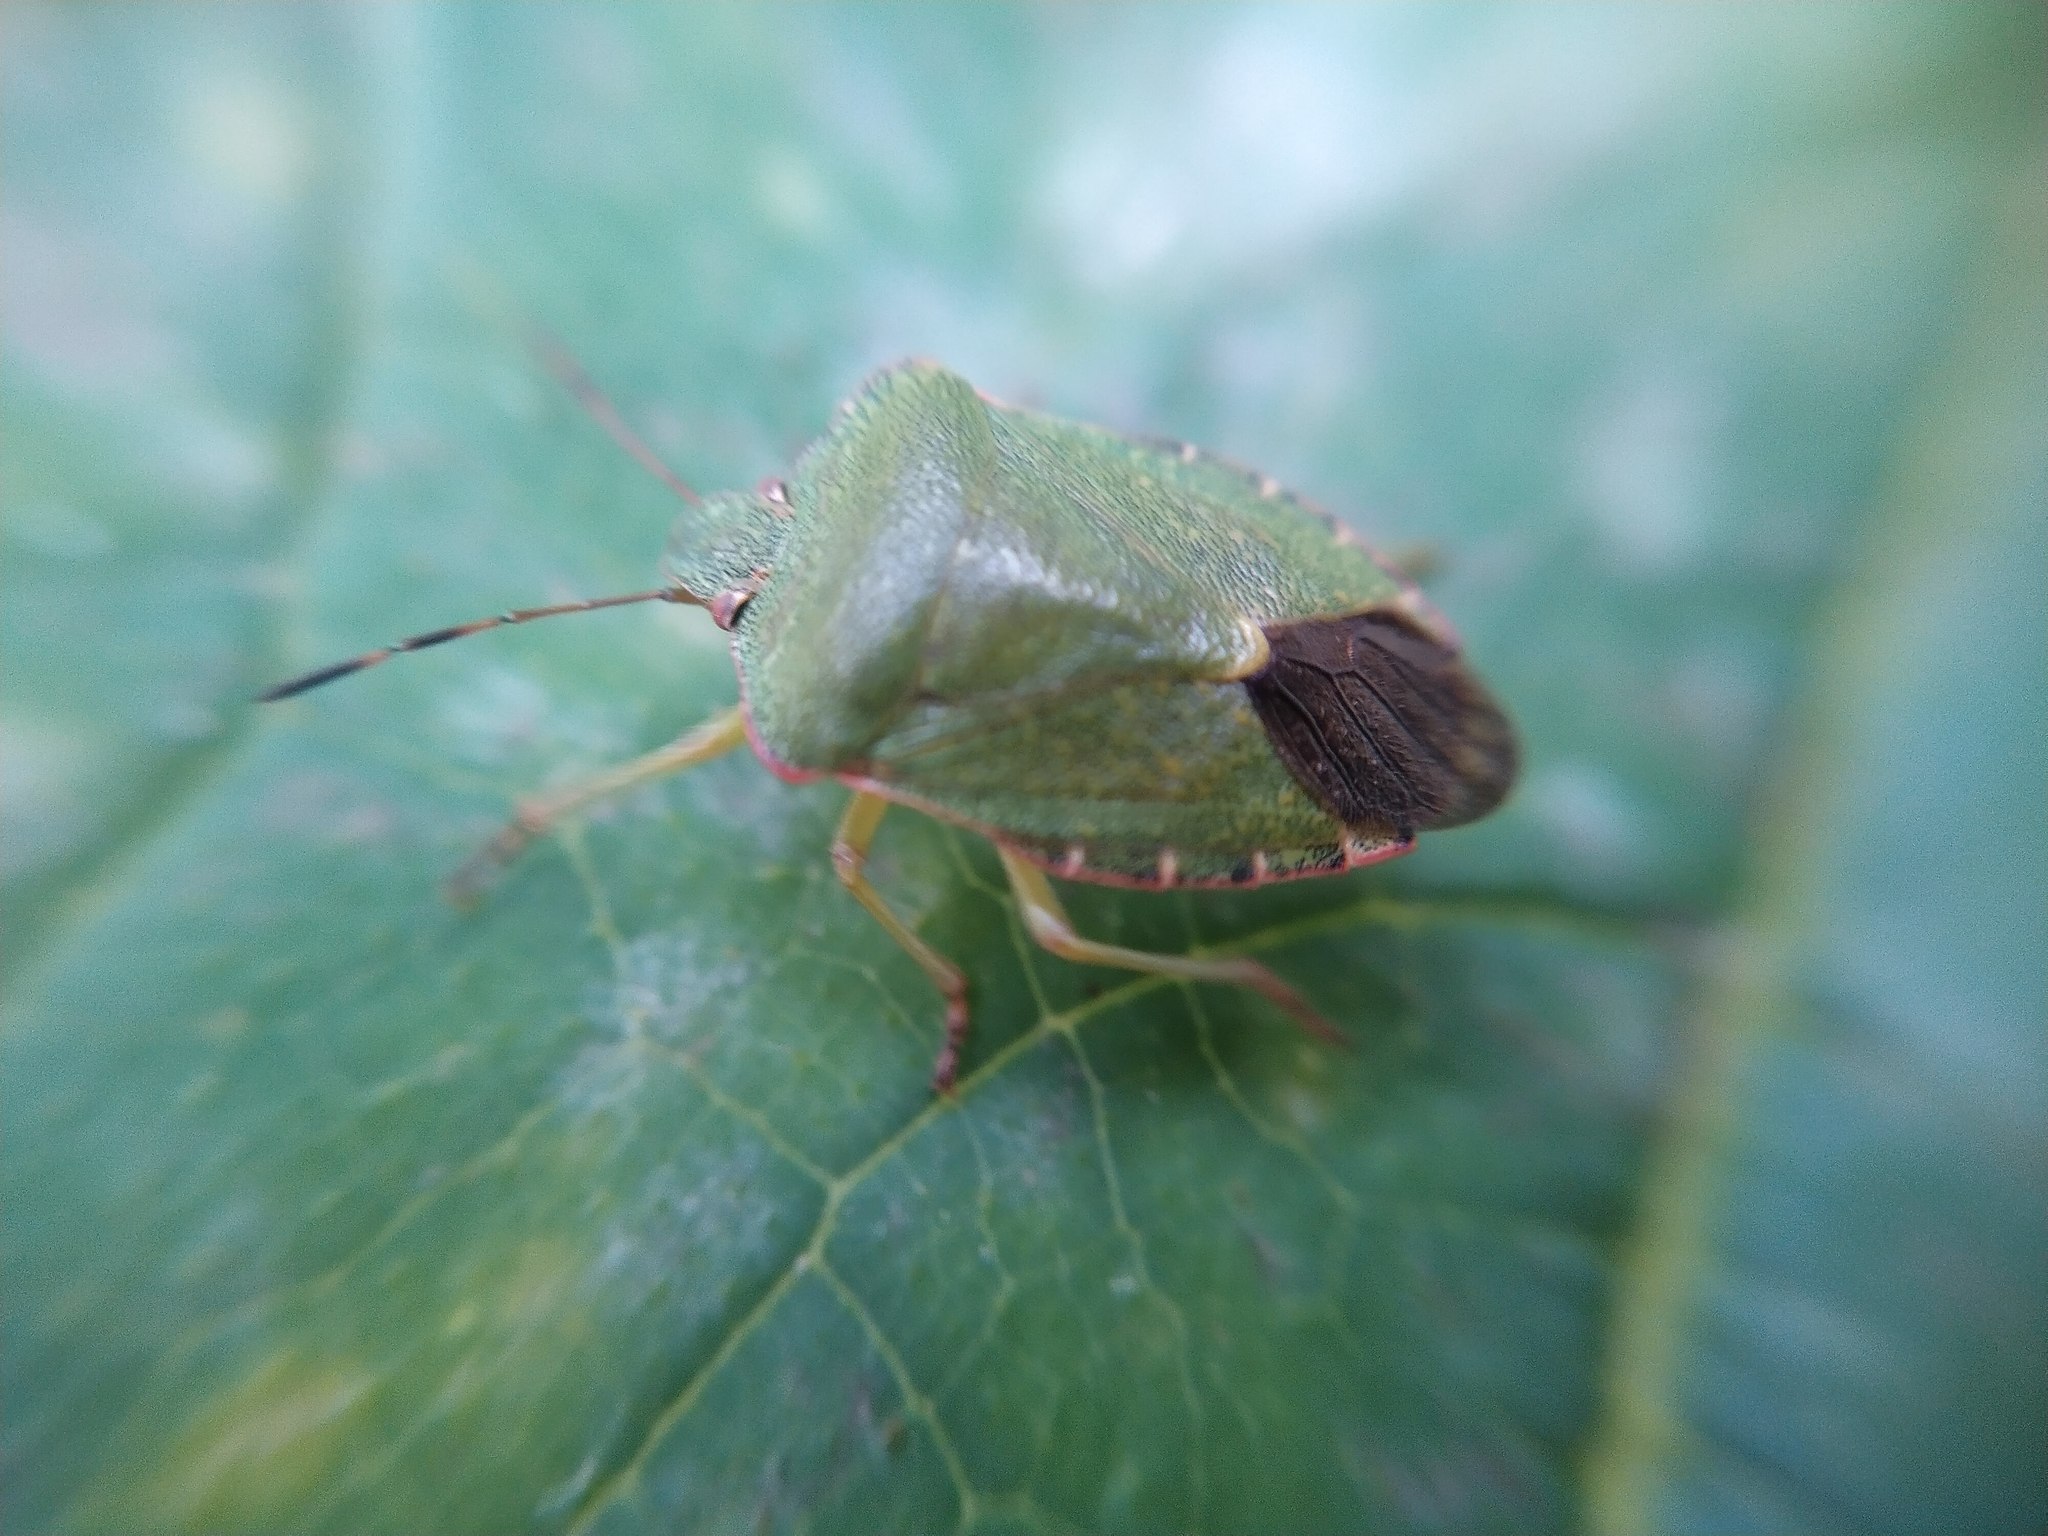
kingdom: Animalia
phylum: Arthropoda
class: Insecta
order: Hemiptera
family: Pentatomidae
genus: Palomena
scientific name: Palomena prasina
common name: Green shieldbug
